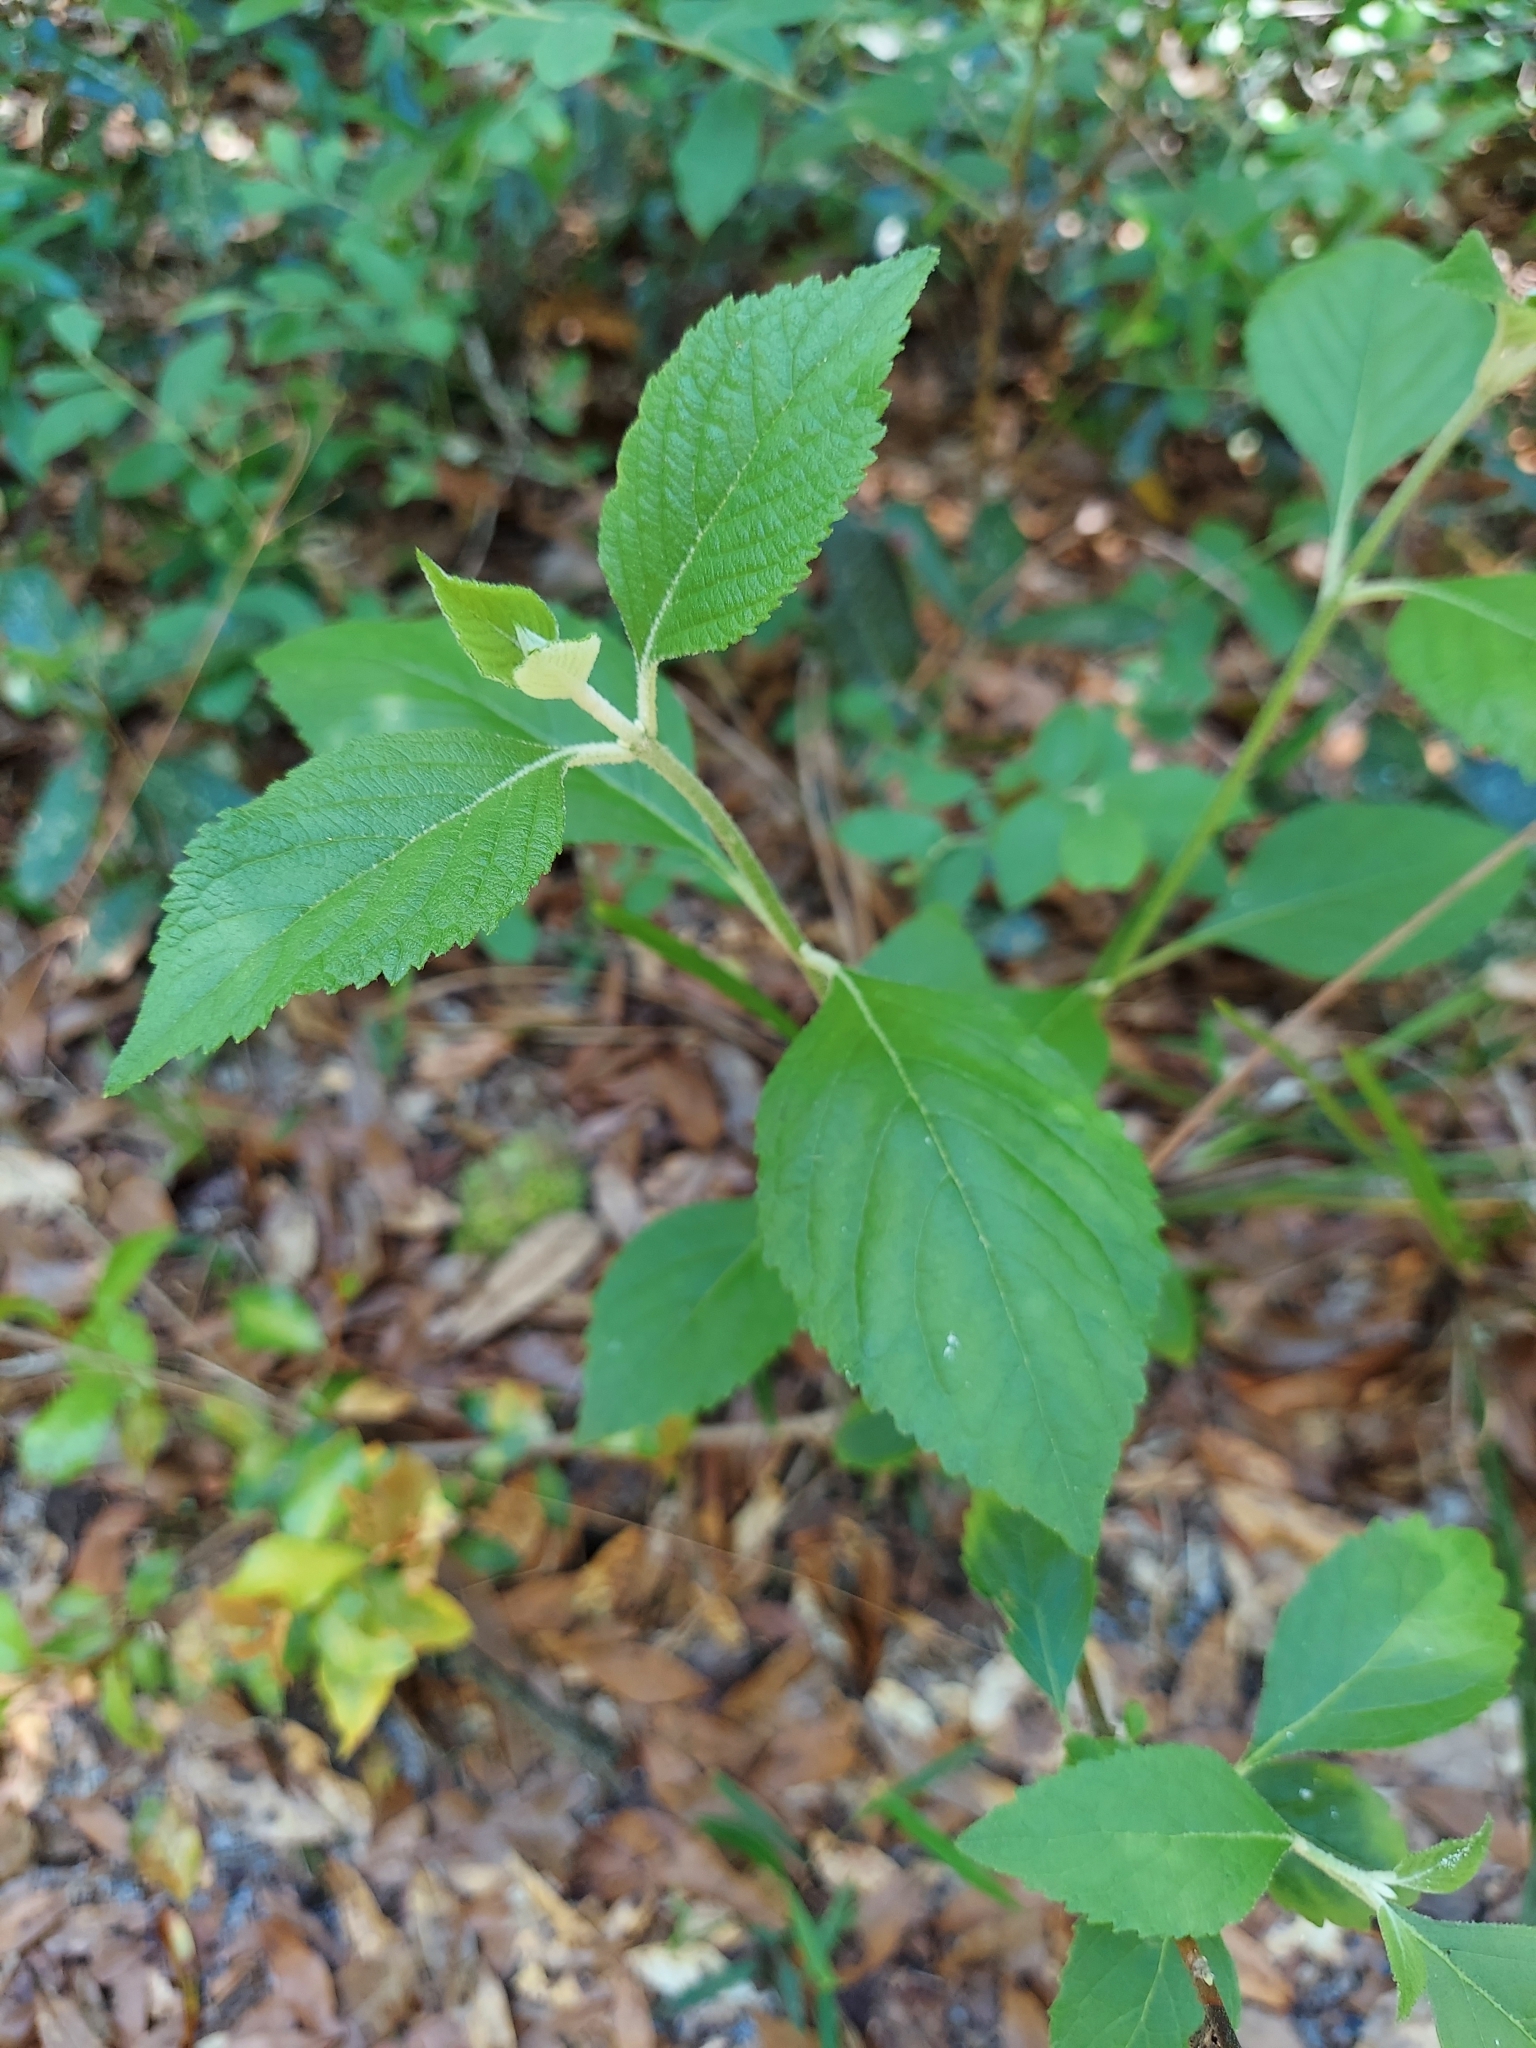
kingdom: Plantae
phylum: Tracheophyta
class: Magnoliopsida
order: Lamiales
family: Lamiaceae
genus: Callicarpa
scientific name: Callicarpa americana
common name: American beautyberry
